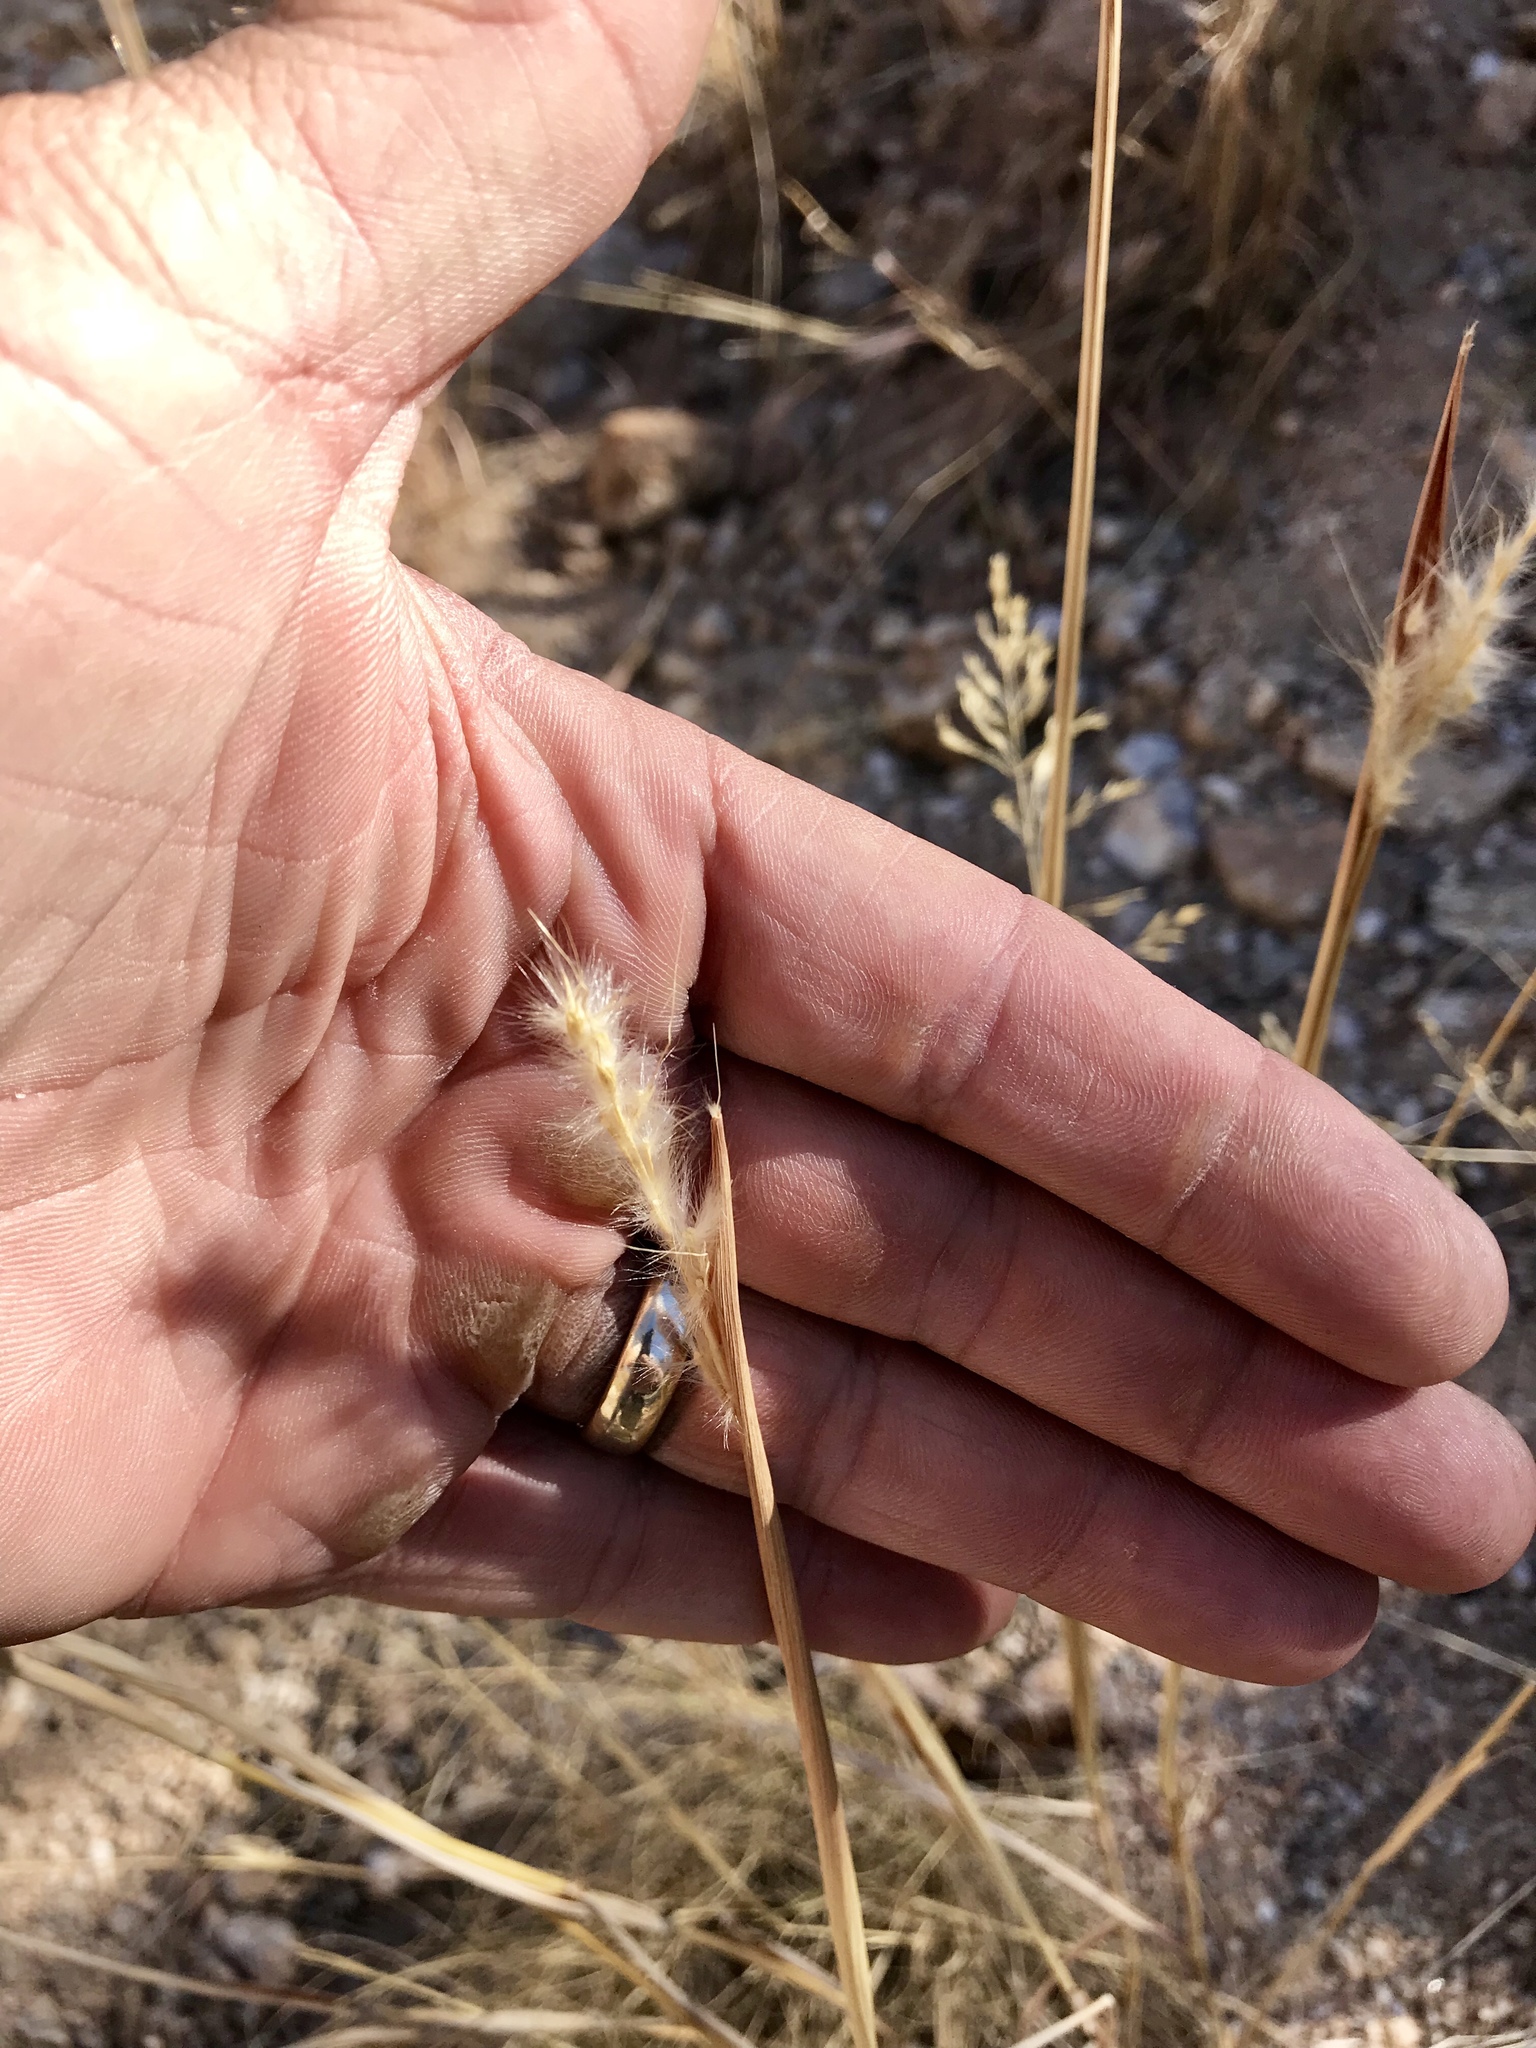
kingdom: Plantae
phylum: Tracheophyta
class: Liliopsida
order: Poales
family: Poaceae
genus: Bothriochloa
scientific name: Bothriochloa barbinodis
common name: Cane bluestem
